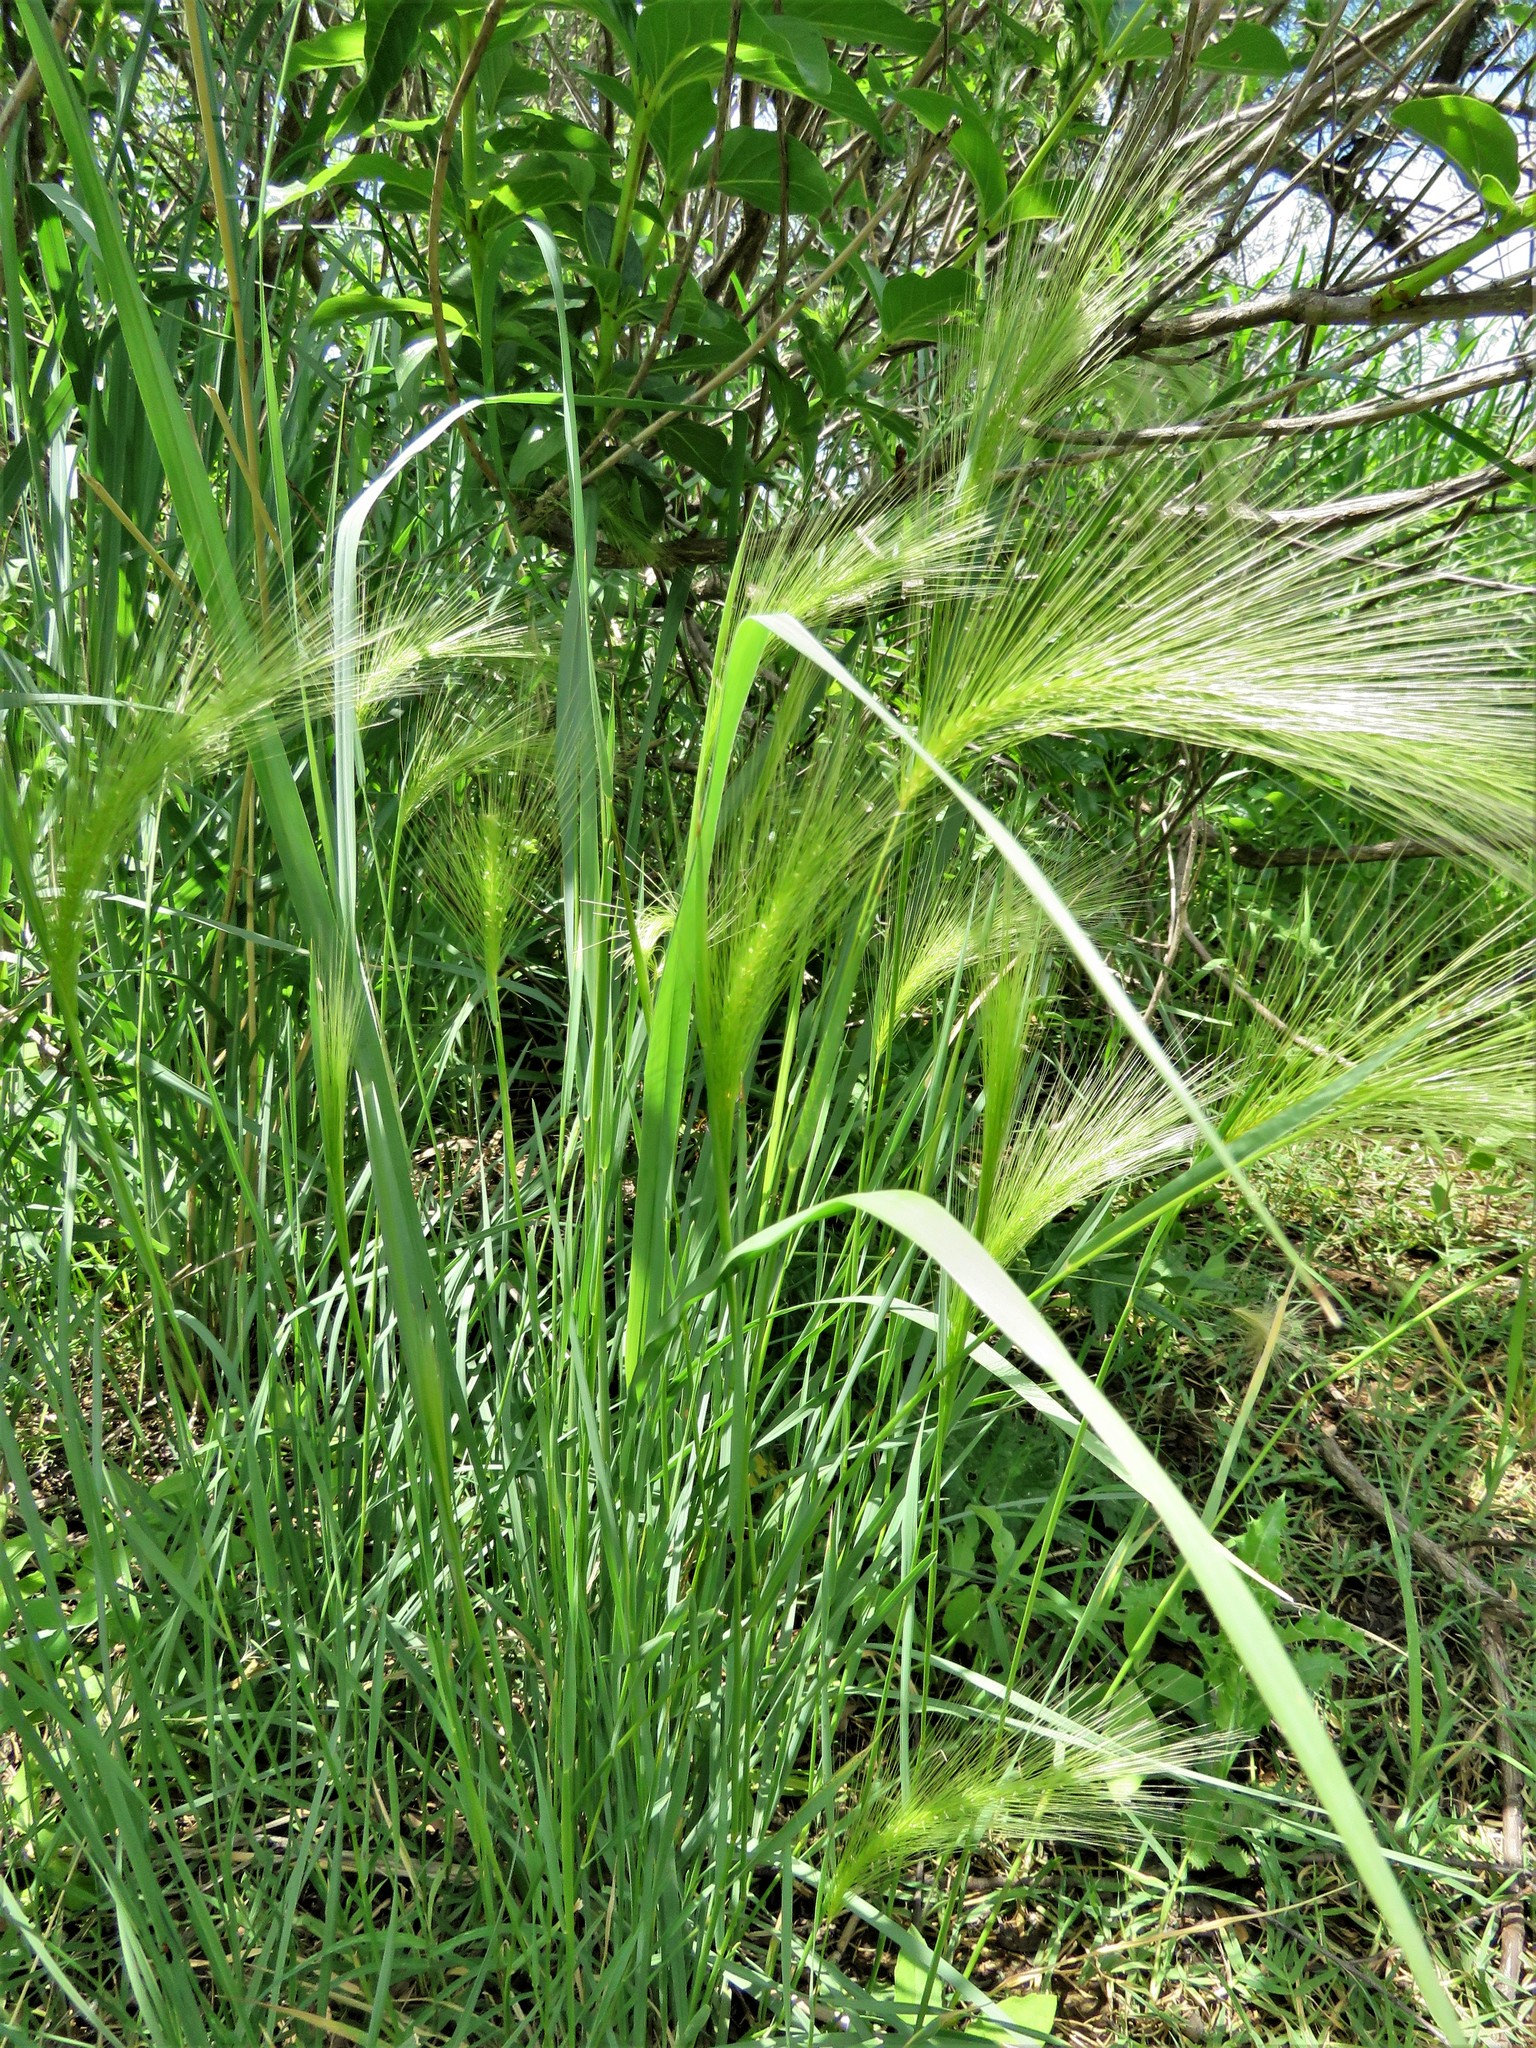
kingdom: Plantae
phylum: Tracheophyta
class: Liliopsida
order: Poales
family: Poaceae
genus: Hordeum
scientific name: Hordeum jubatum
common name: Foxtail barley
